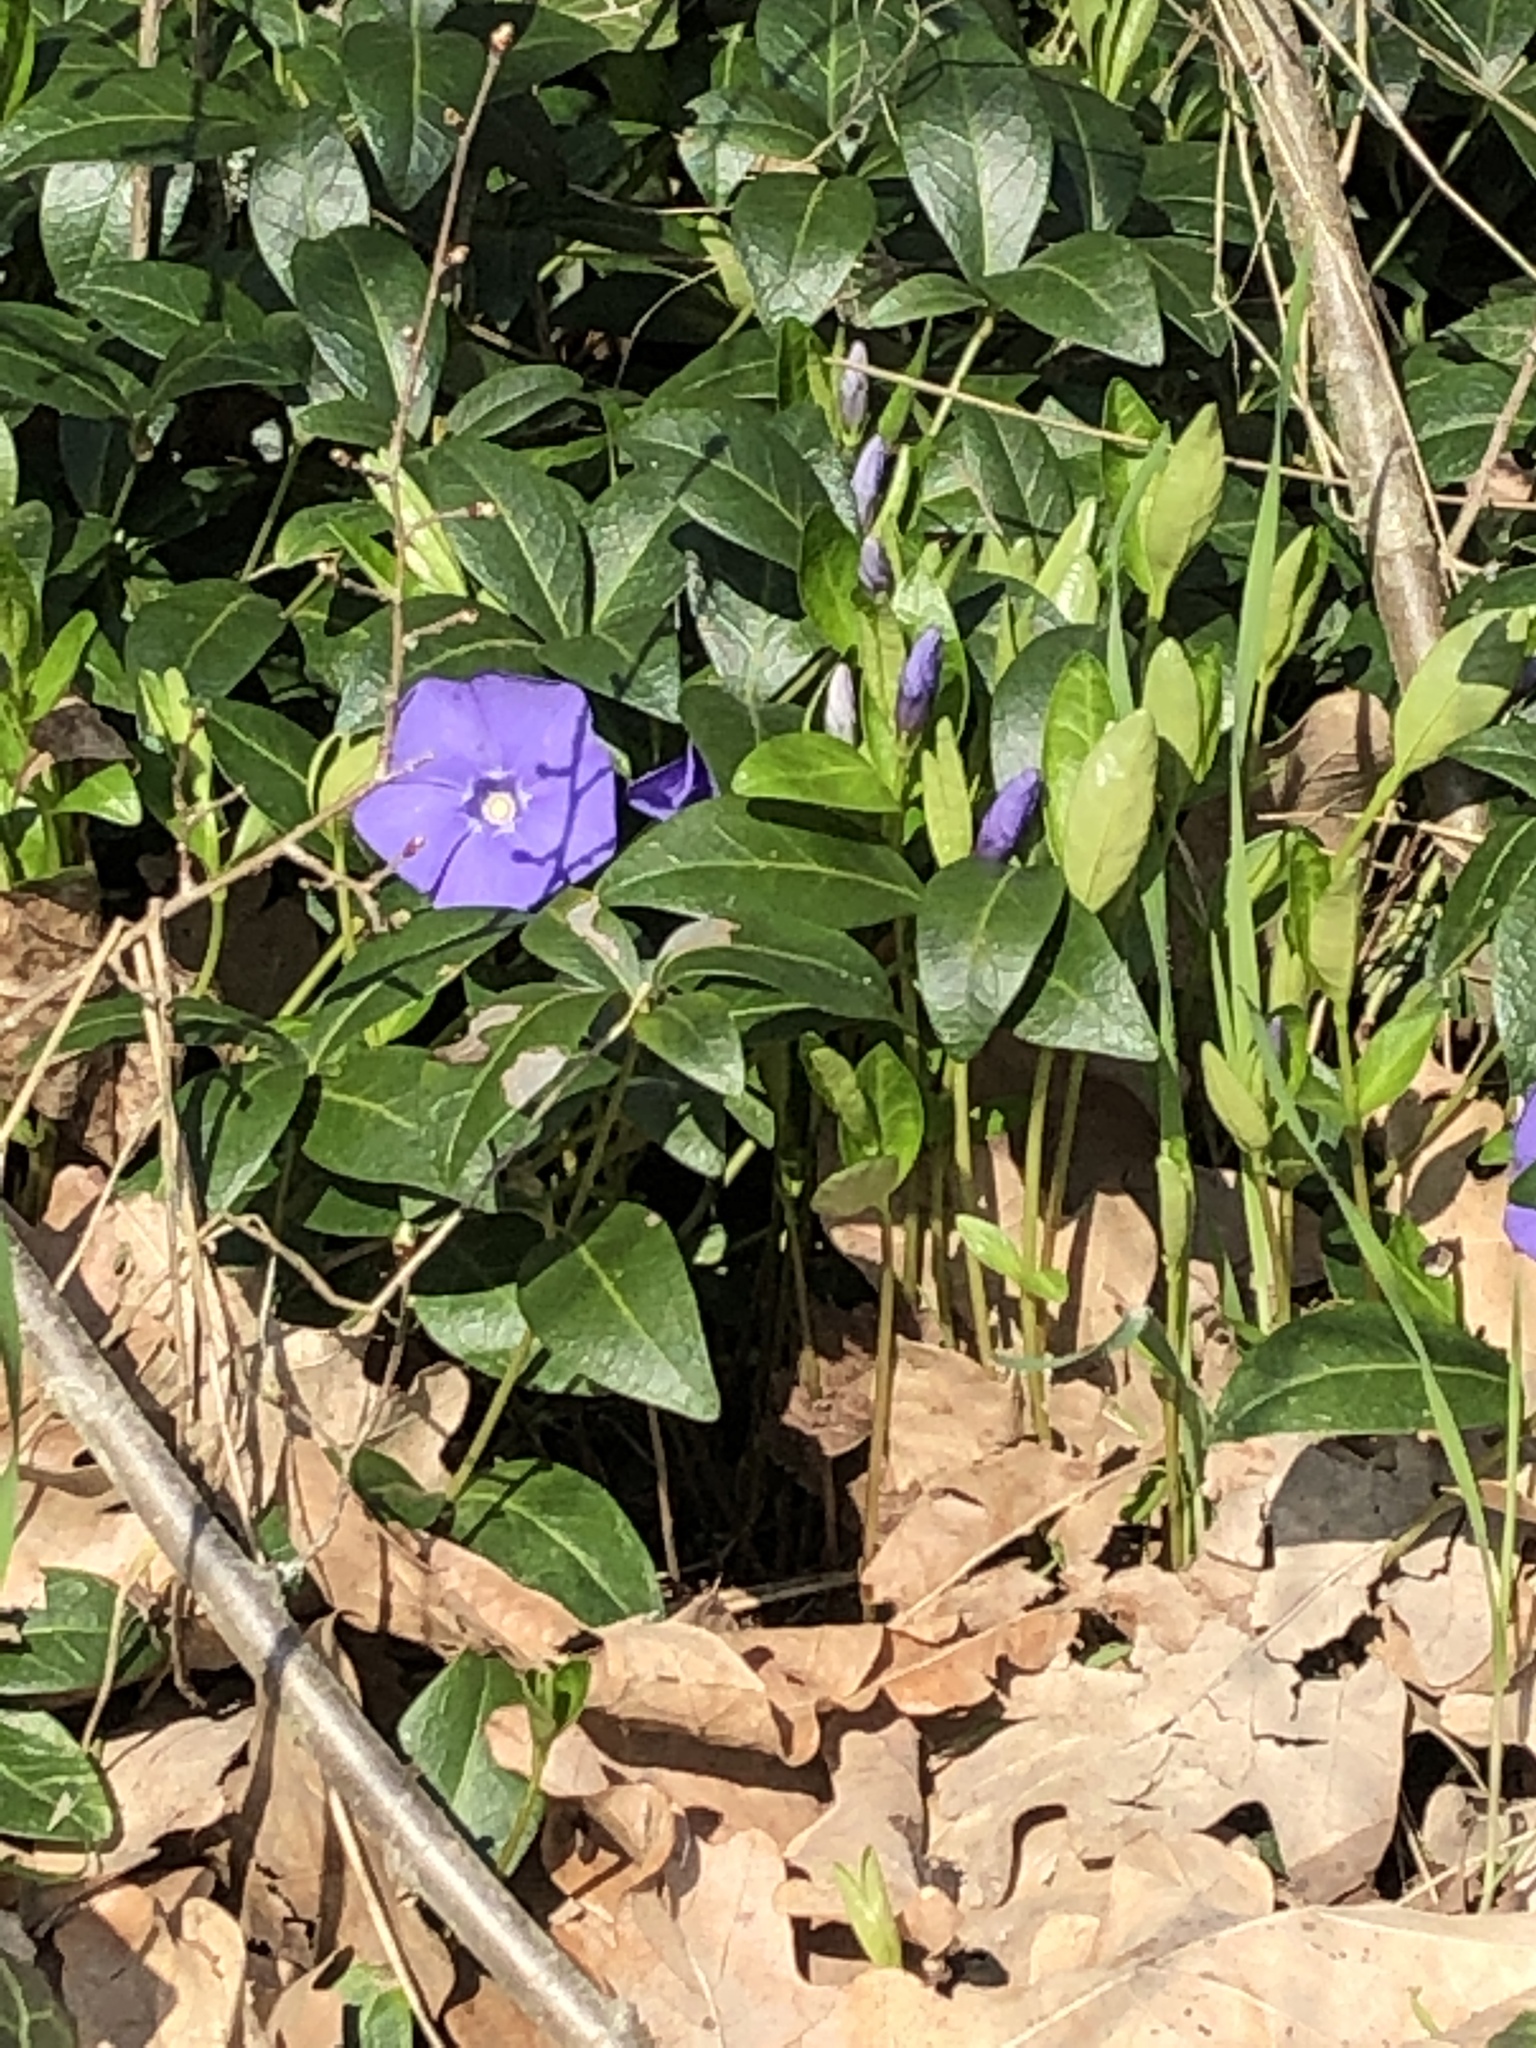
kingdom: Plantae
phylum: Tracheophyta
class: Magnoliopsida
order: Gentianales
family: Apocynaceae
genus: Vinca
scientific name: Vinca minor
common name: Lesser periwinkle
